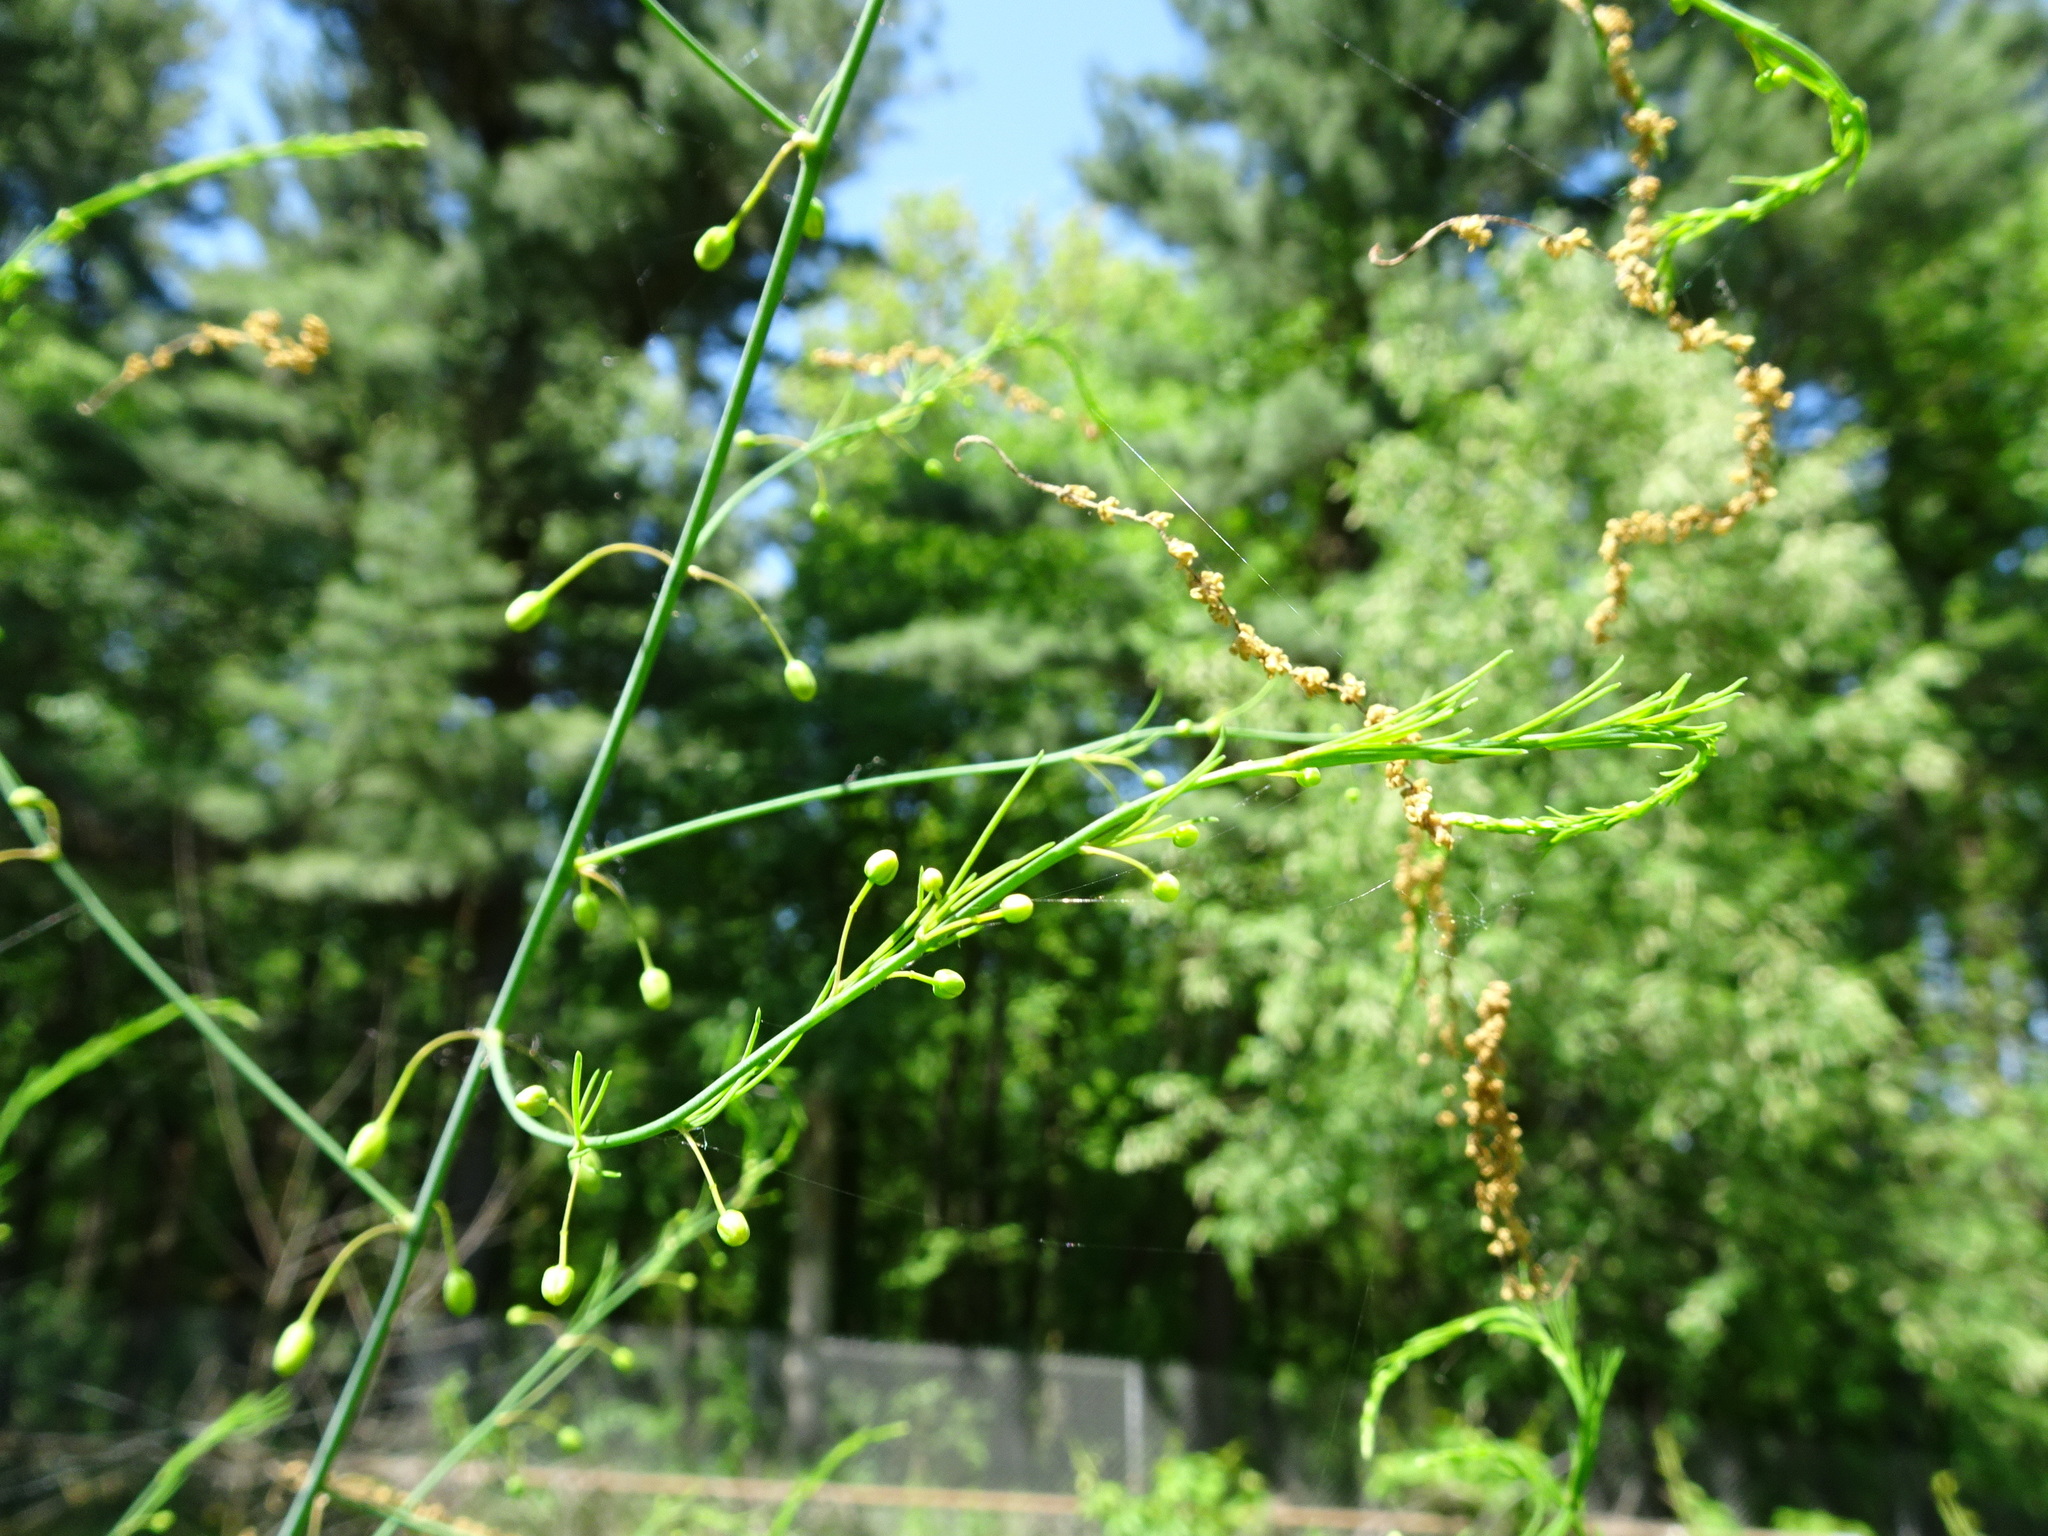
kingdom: Plantae
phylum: Tracheophyta
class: Liliopsida
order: Asparagales
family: Asparagaceae
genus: Asparagus
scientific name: Asparagus officinalis
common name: Garden asparagus
